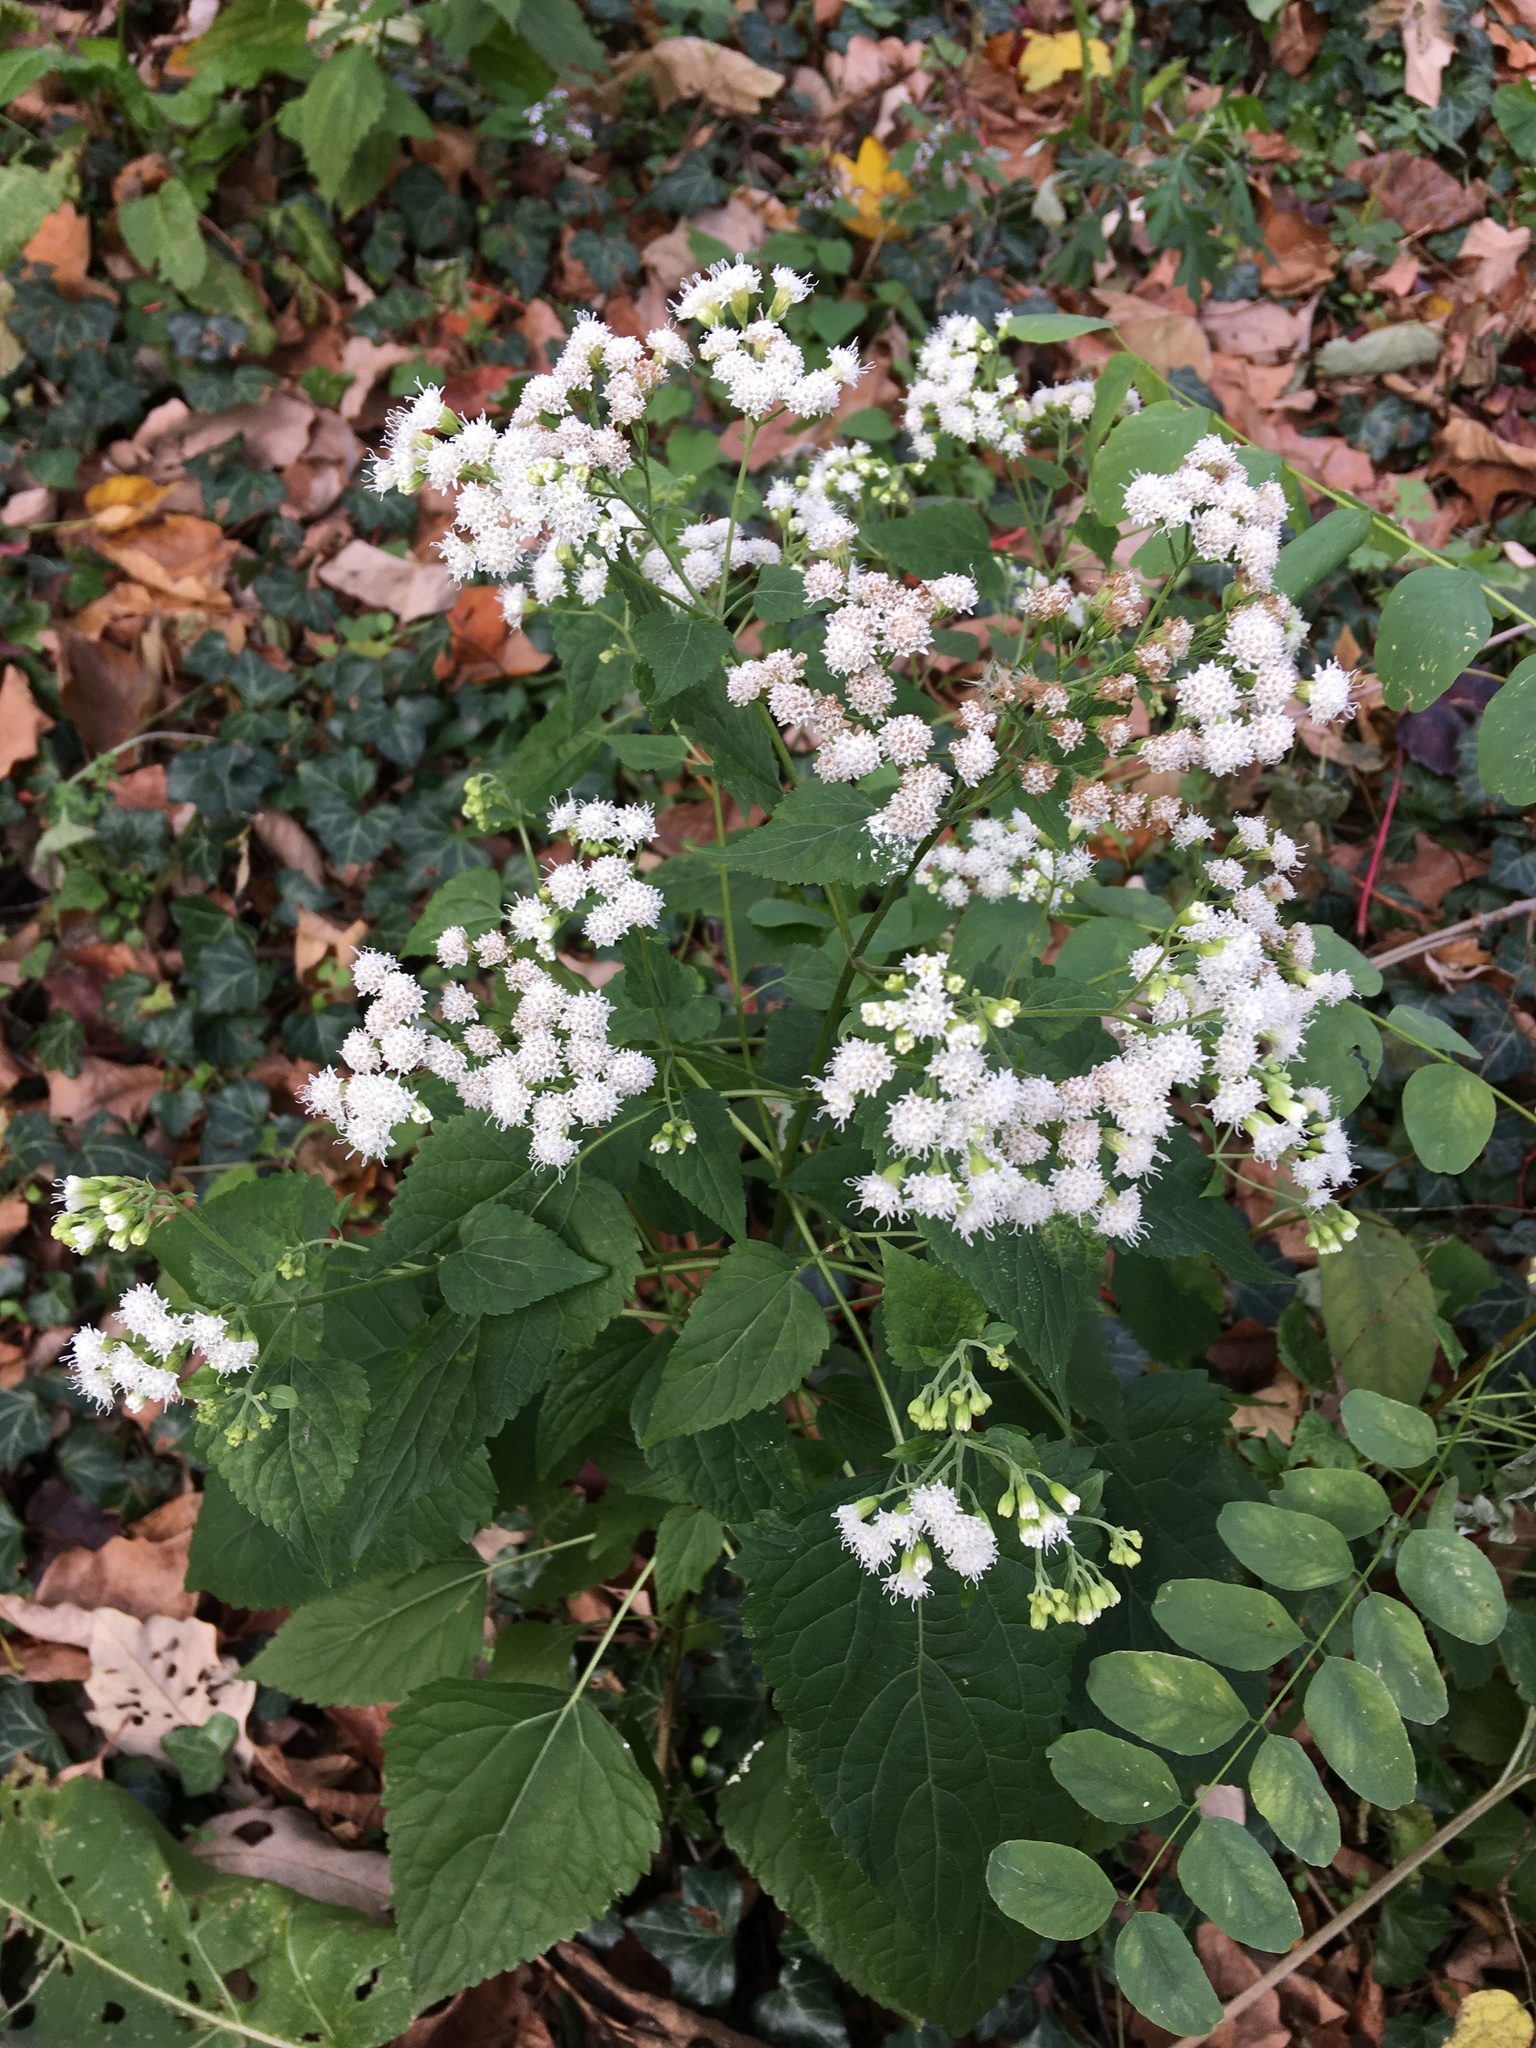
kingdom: Plantae
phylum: Tracheophyta
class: Magnoliopsida
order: Asterales
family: Asteraceae
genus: Ageratina
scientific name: Ageratina altissima
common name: White snakeroot
